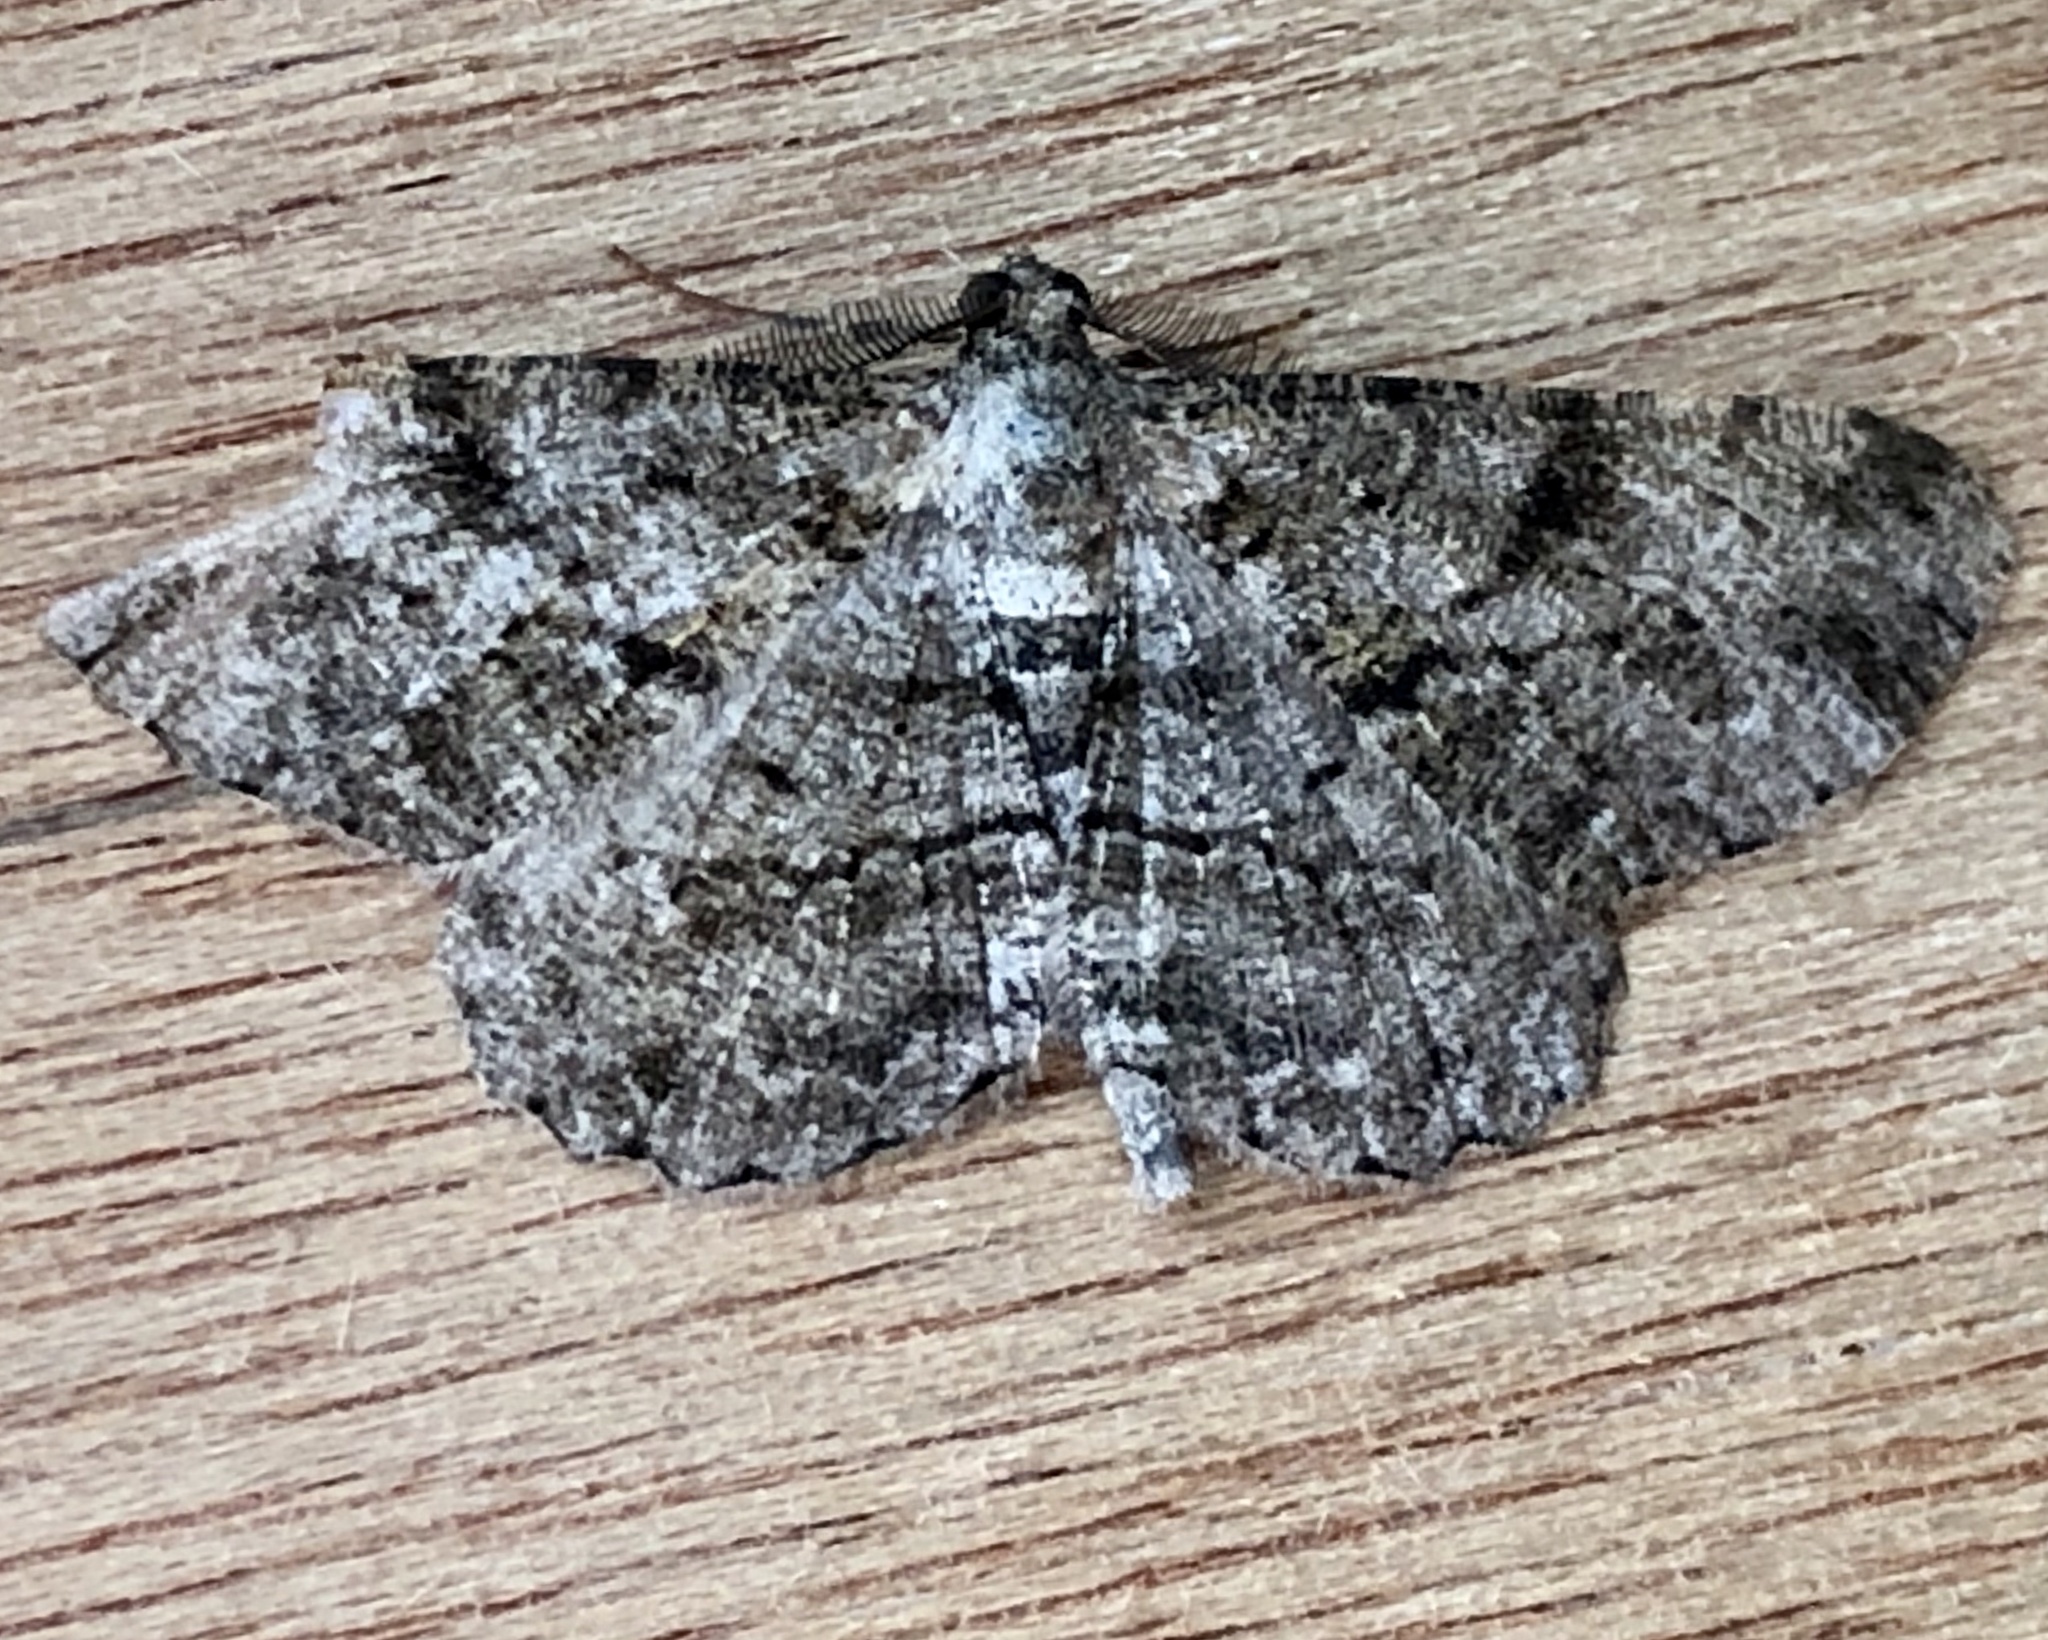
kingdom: Animalia
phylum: Arthropoda
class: Insecta
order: Lepidoptera
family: Geometridae
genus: Peribatodes
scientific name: Peribatodes rhomboidaria
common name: Willow beauty
